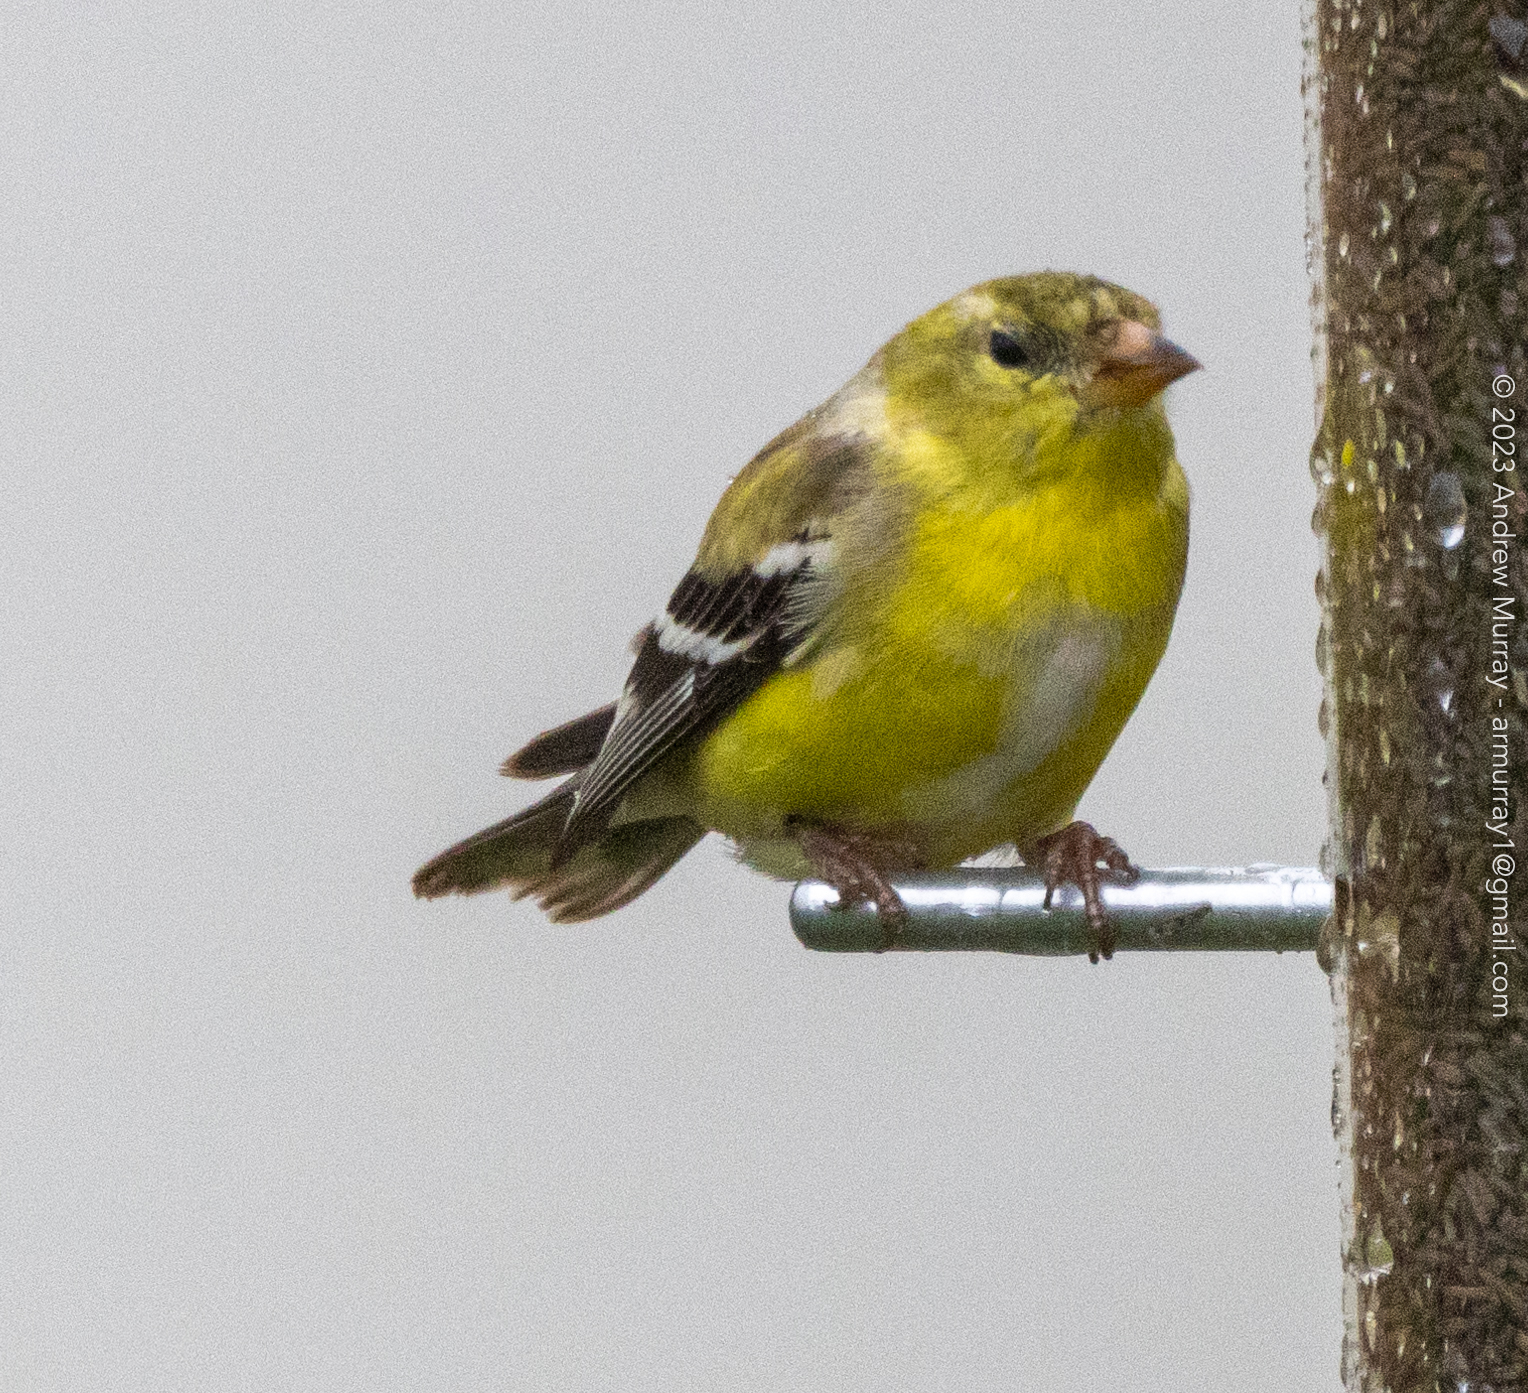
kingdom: Animalia
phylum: Chordata
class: Aves
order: Passeriformes
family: Fringillidae
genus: Spinus
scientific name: Spinus tristis
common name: American goldfinch
